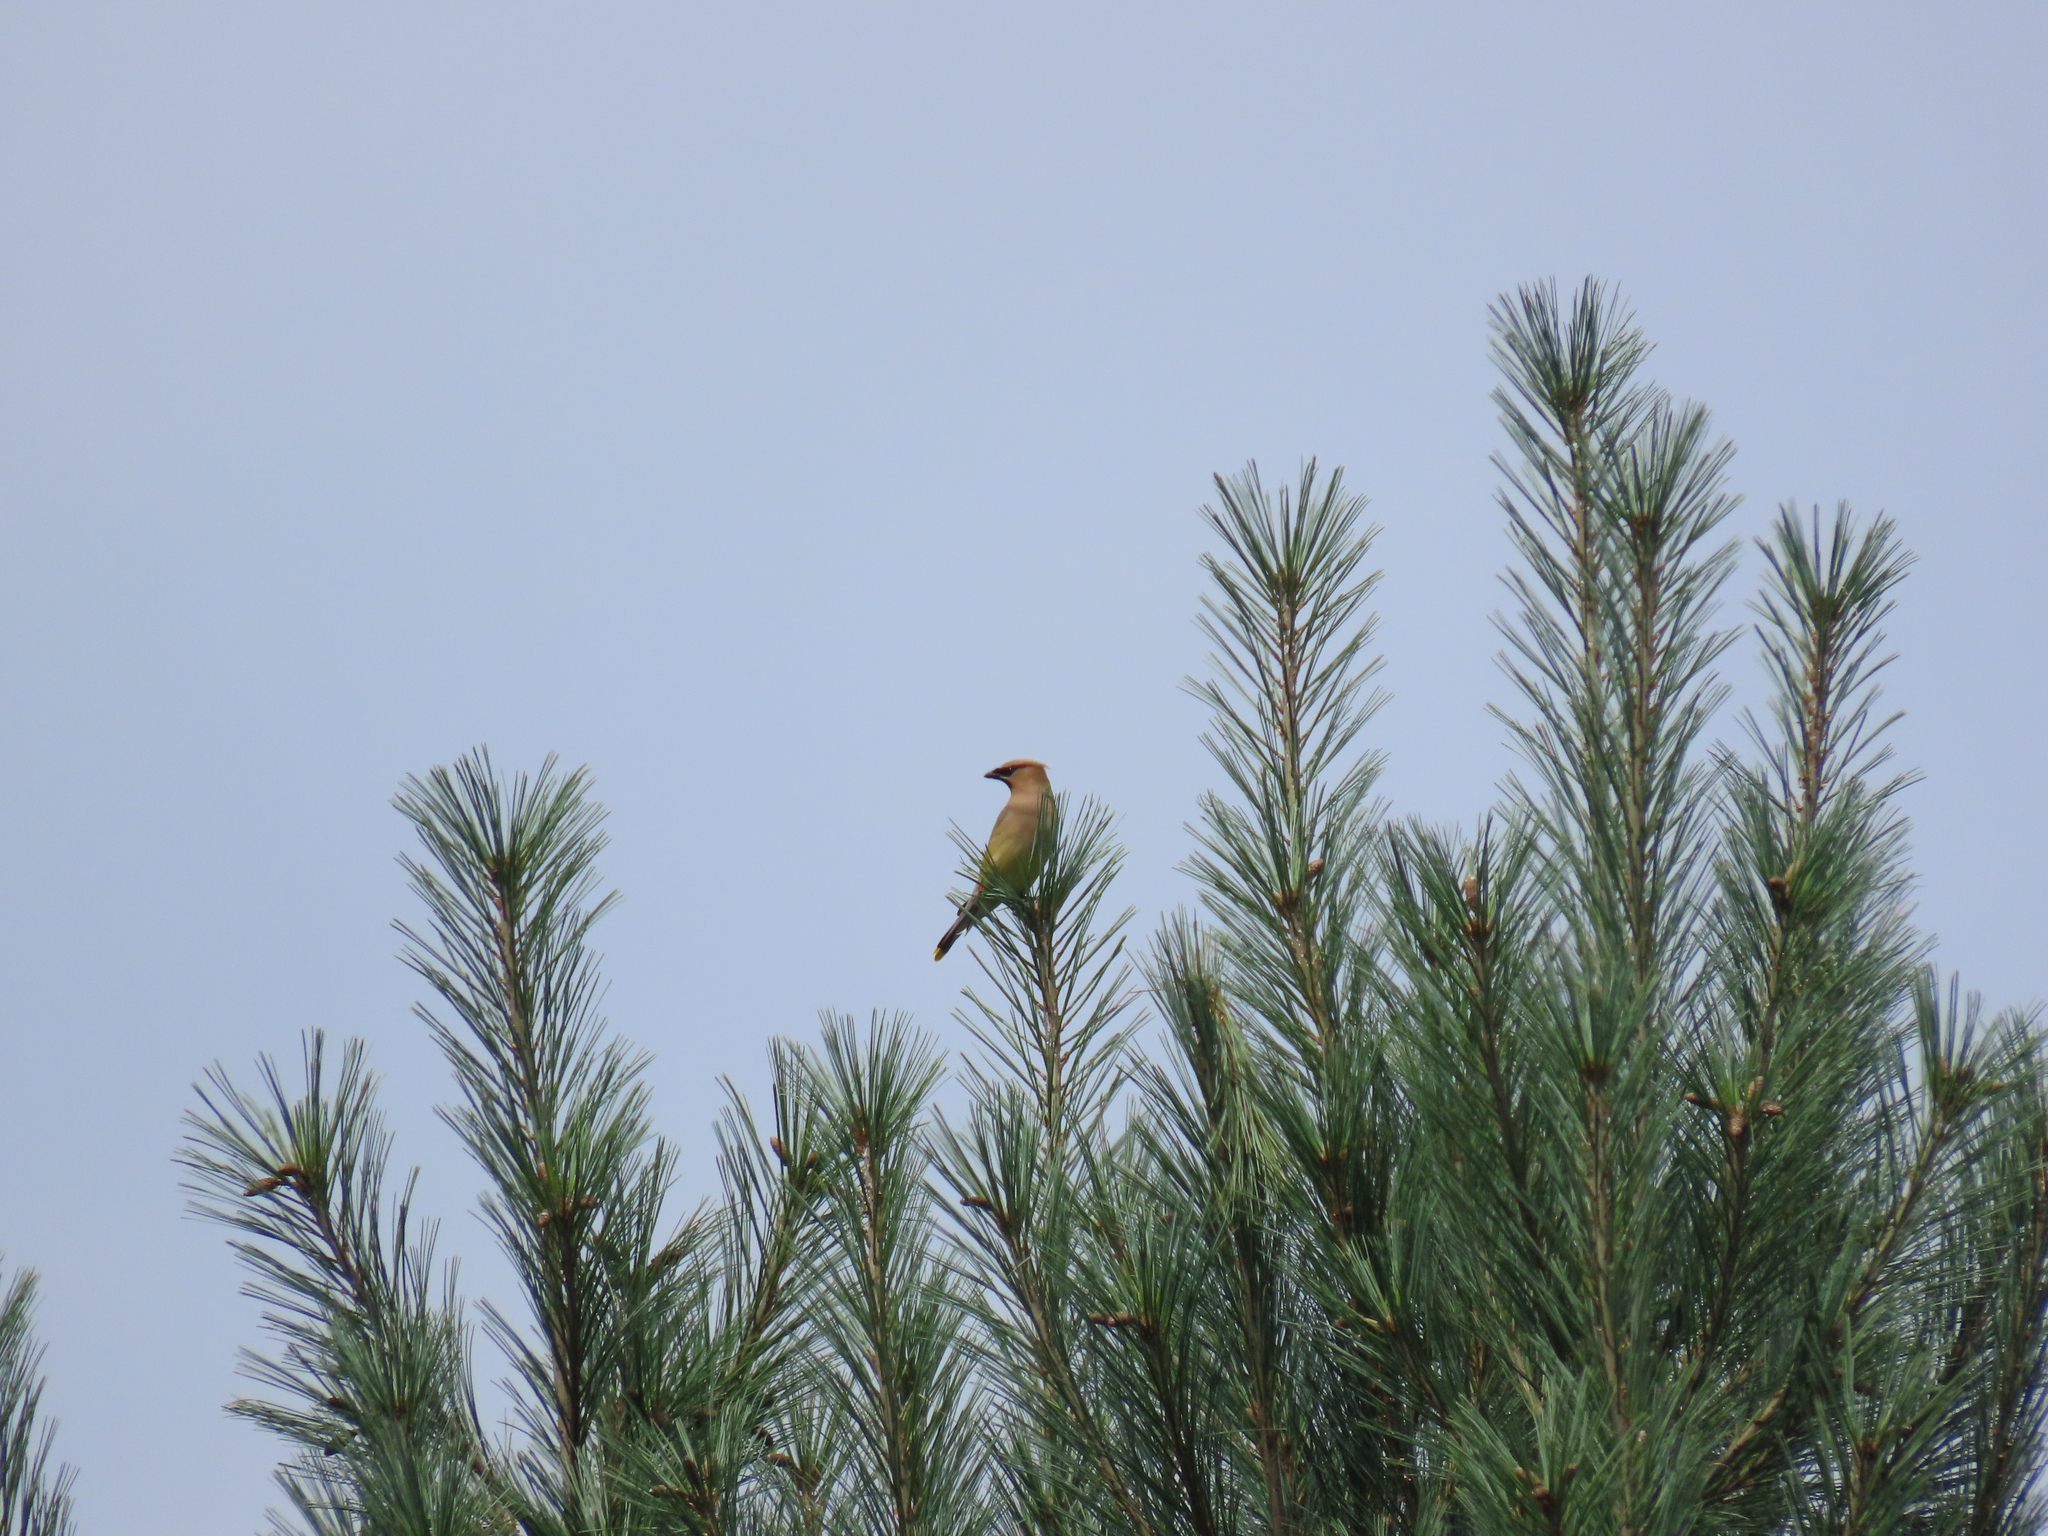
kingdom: Animalia
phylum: Chordata
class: Aves
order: Passeriformes
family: Bombycillidae
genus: Bombycilla
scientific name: Bombycilla cedrorum
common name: Cedar waxwing
